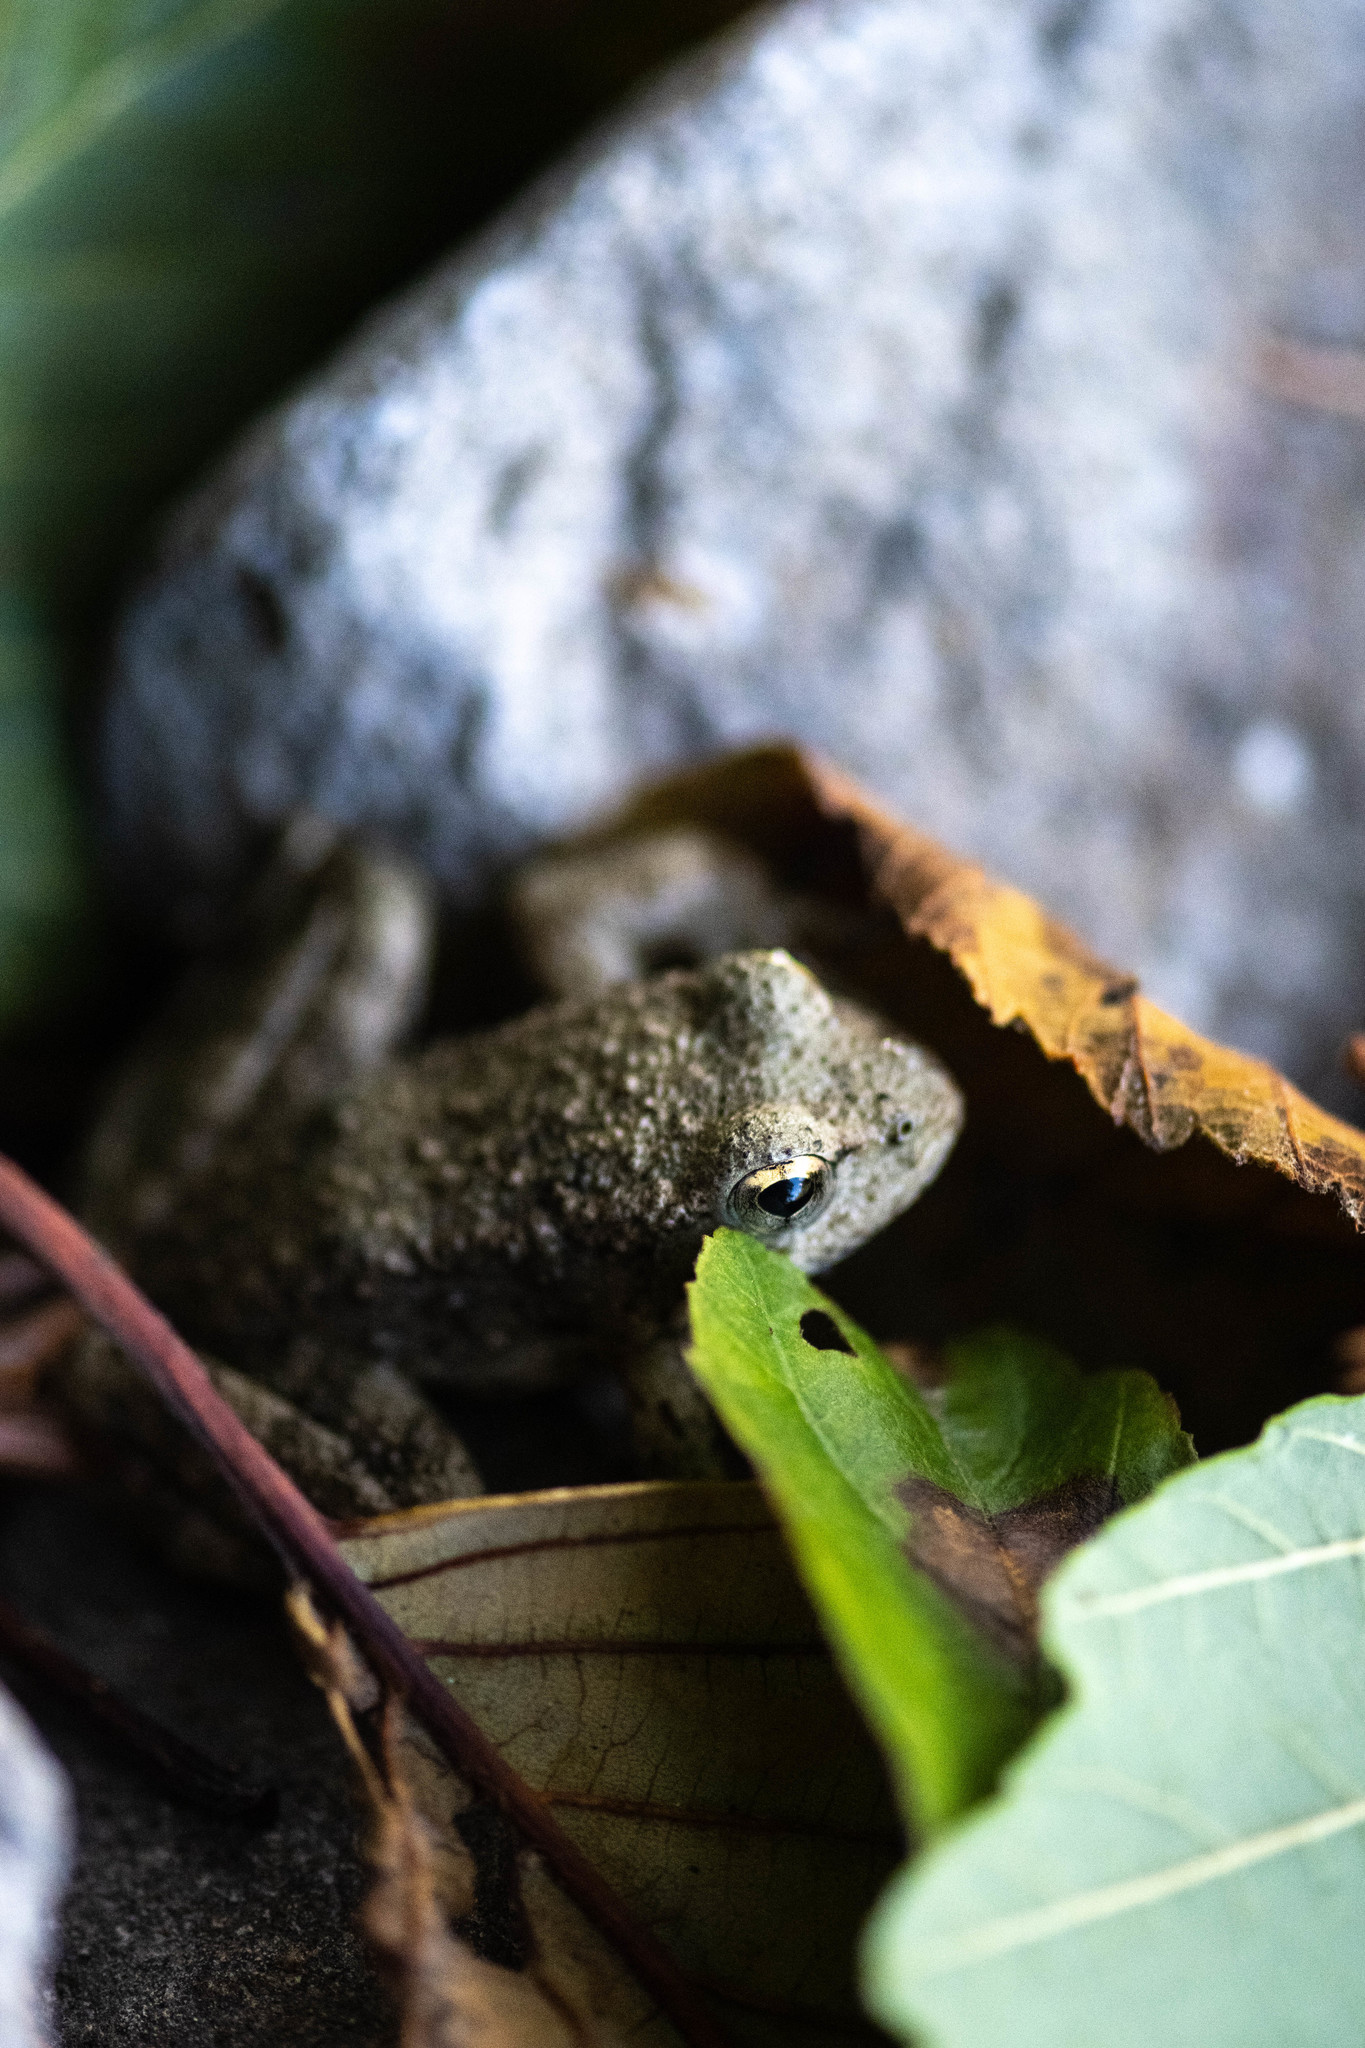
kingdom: Animalia
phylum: Chordata
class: Amphibia
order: Anura
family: Ranidae
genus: Rana
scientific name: Rana boylii
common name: Foothill yellow-legged frog
